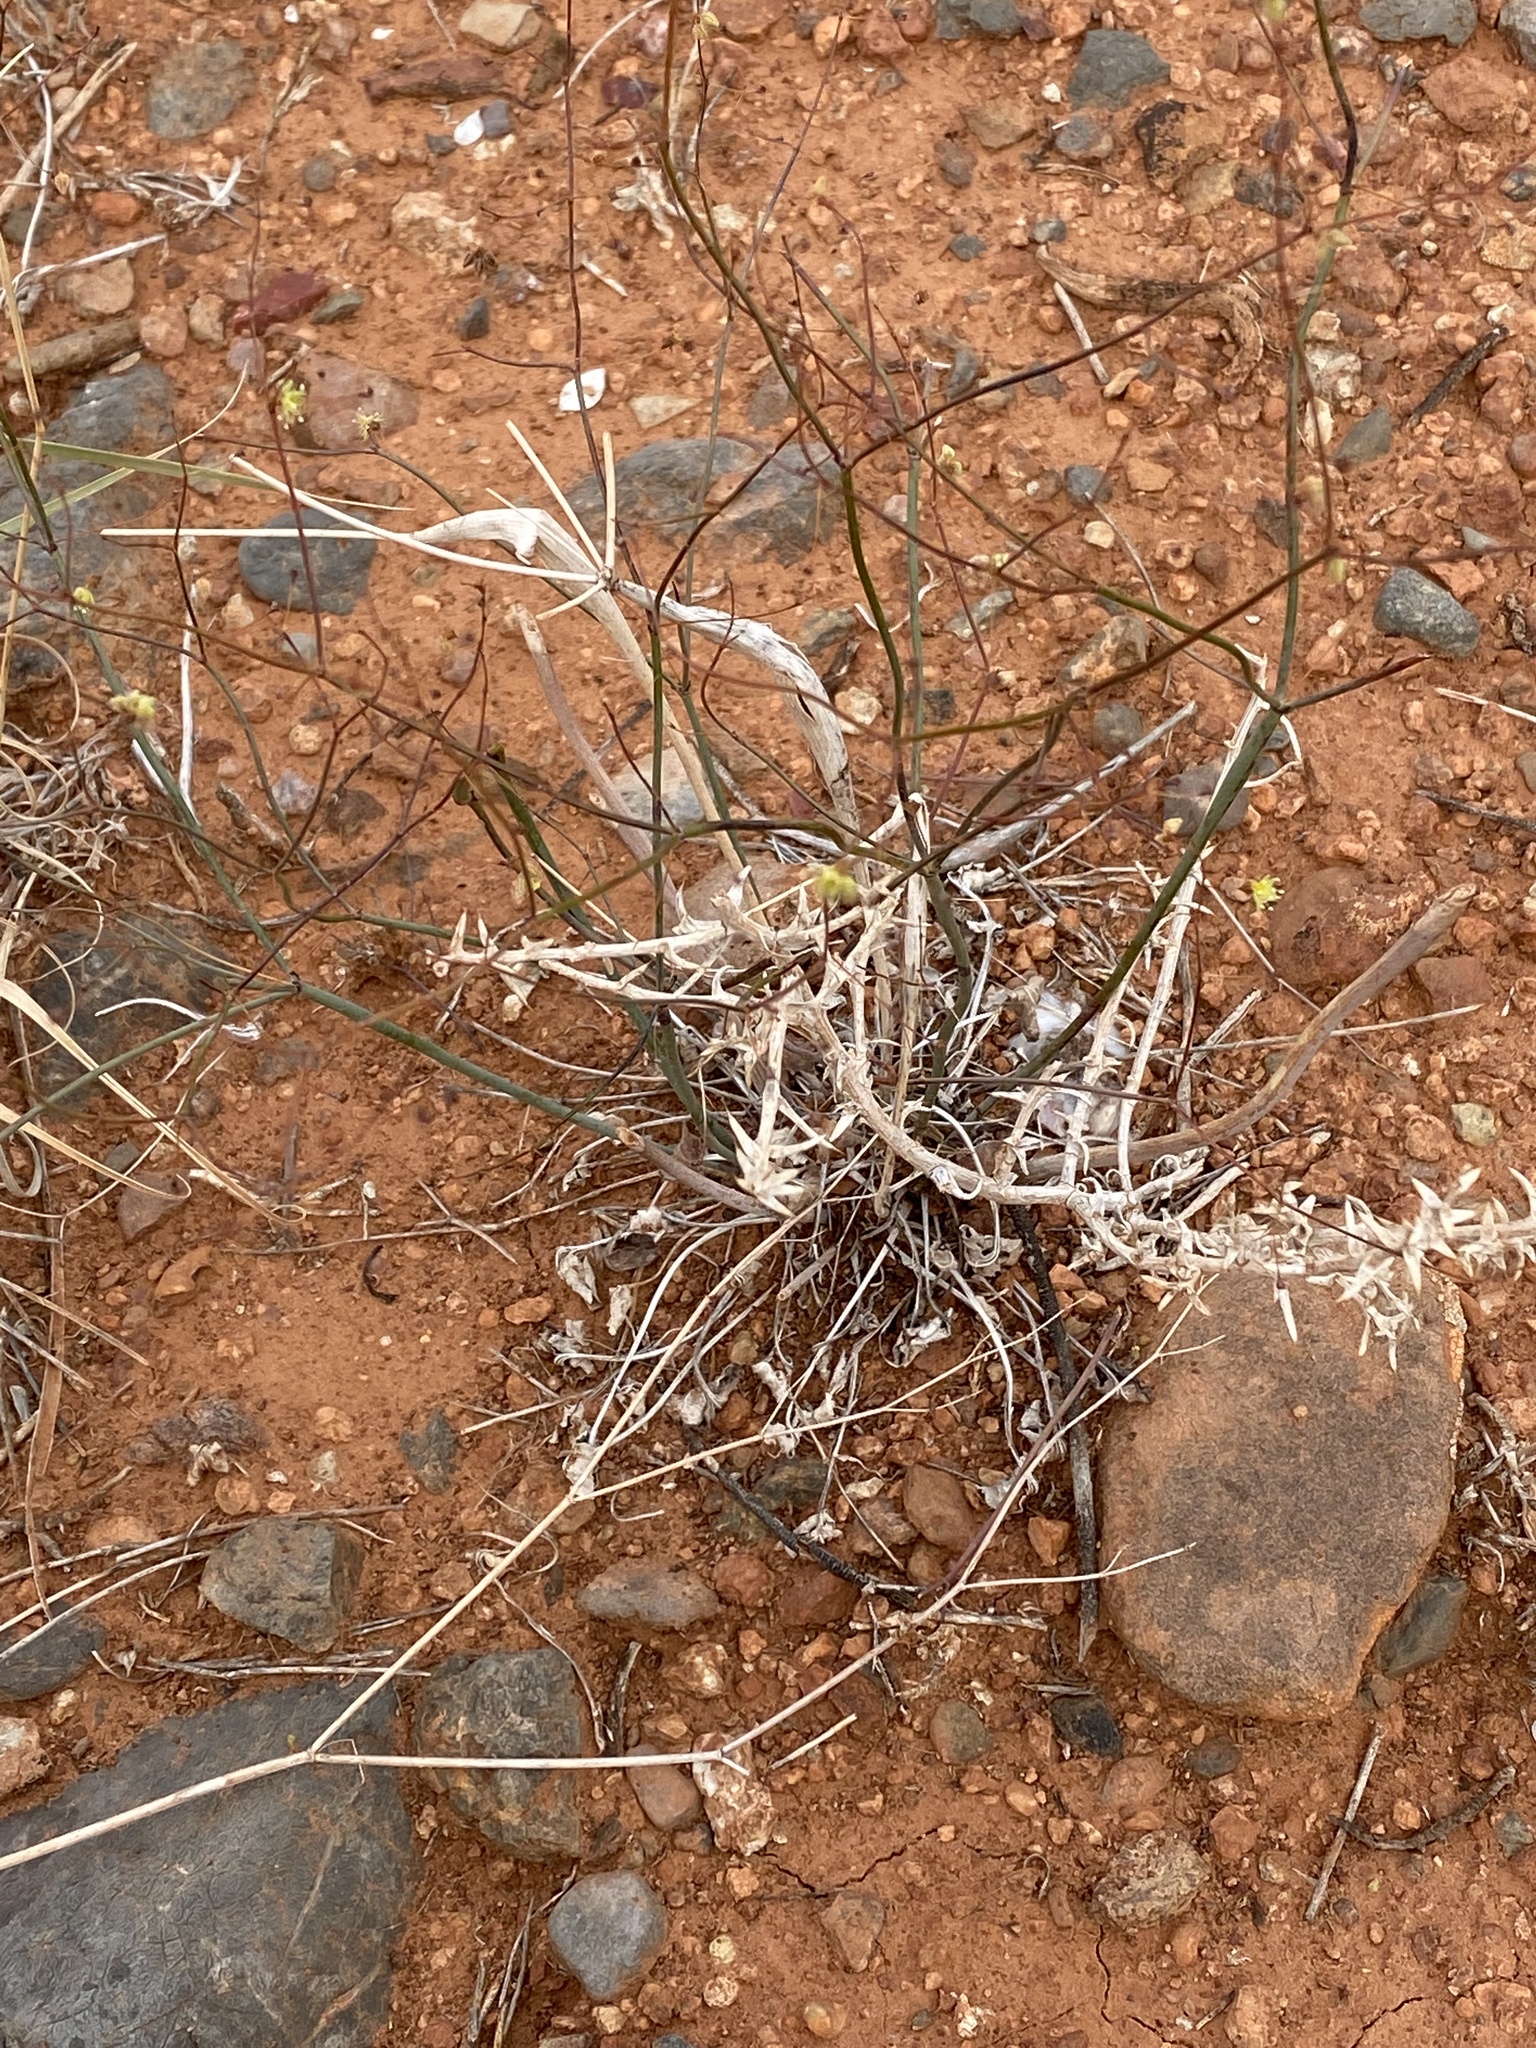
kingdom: Plantae
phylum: Tracheophyta
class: Magnoliopsida
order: Caryophyllales
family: Polygonaceae
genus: Eriogonum
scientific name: Eriogonum inflatum
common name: Desert trumpet
